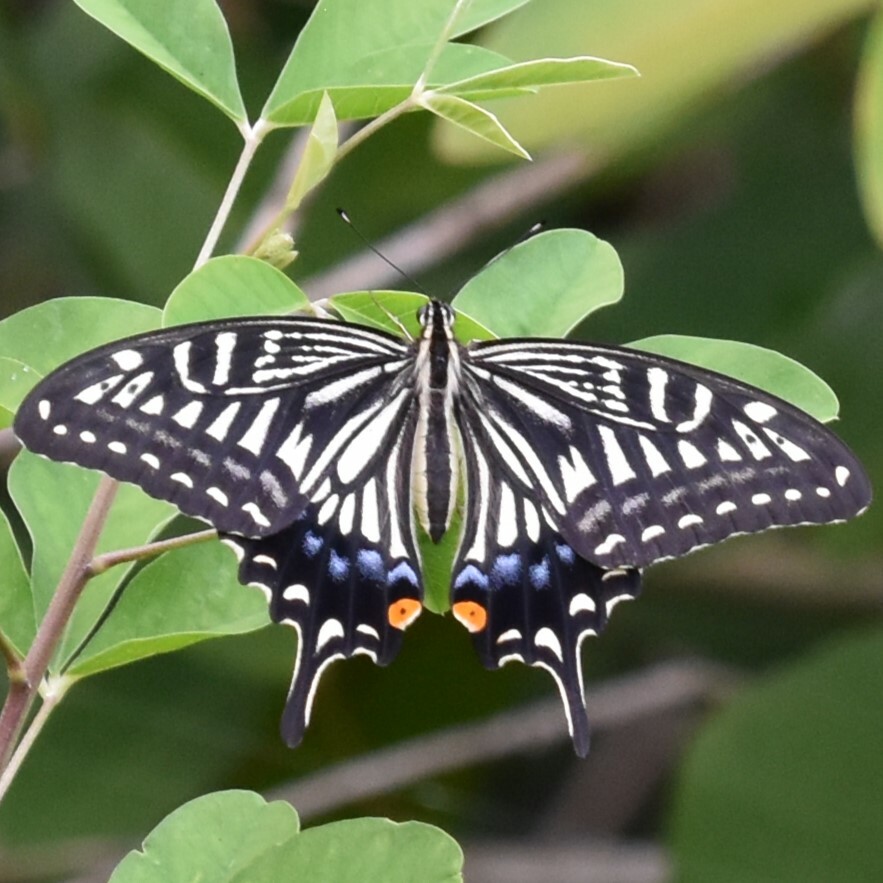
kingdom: Animalia
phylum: Arthropoda
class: Insecta
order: Lepidoptera
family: Papilionidae
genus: Papilio
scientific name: Papilio xuthus
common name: Asian swallowtail
